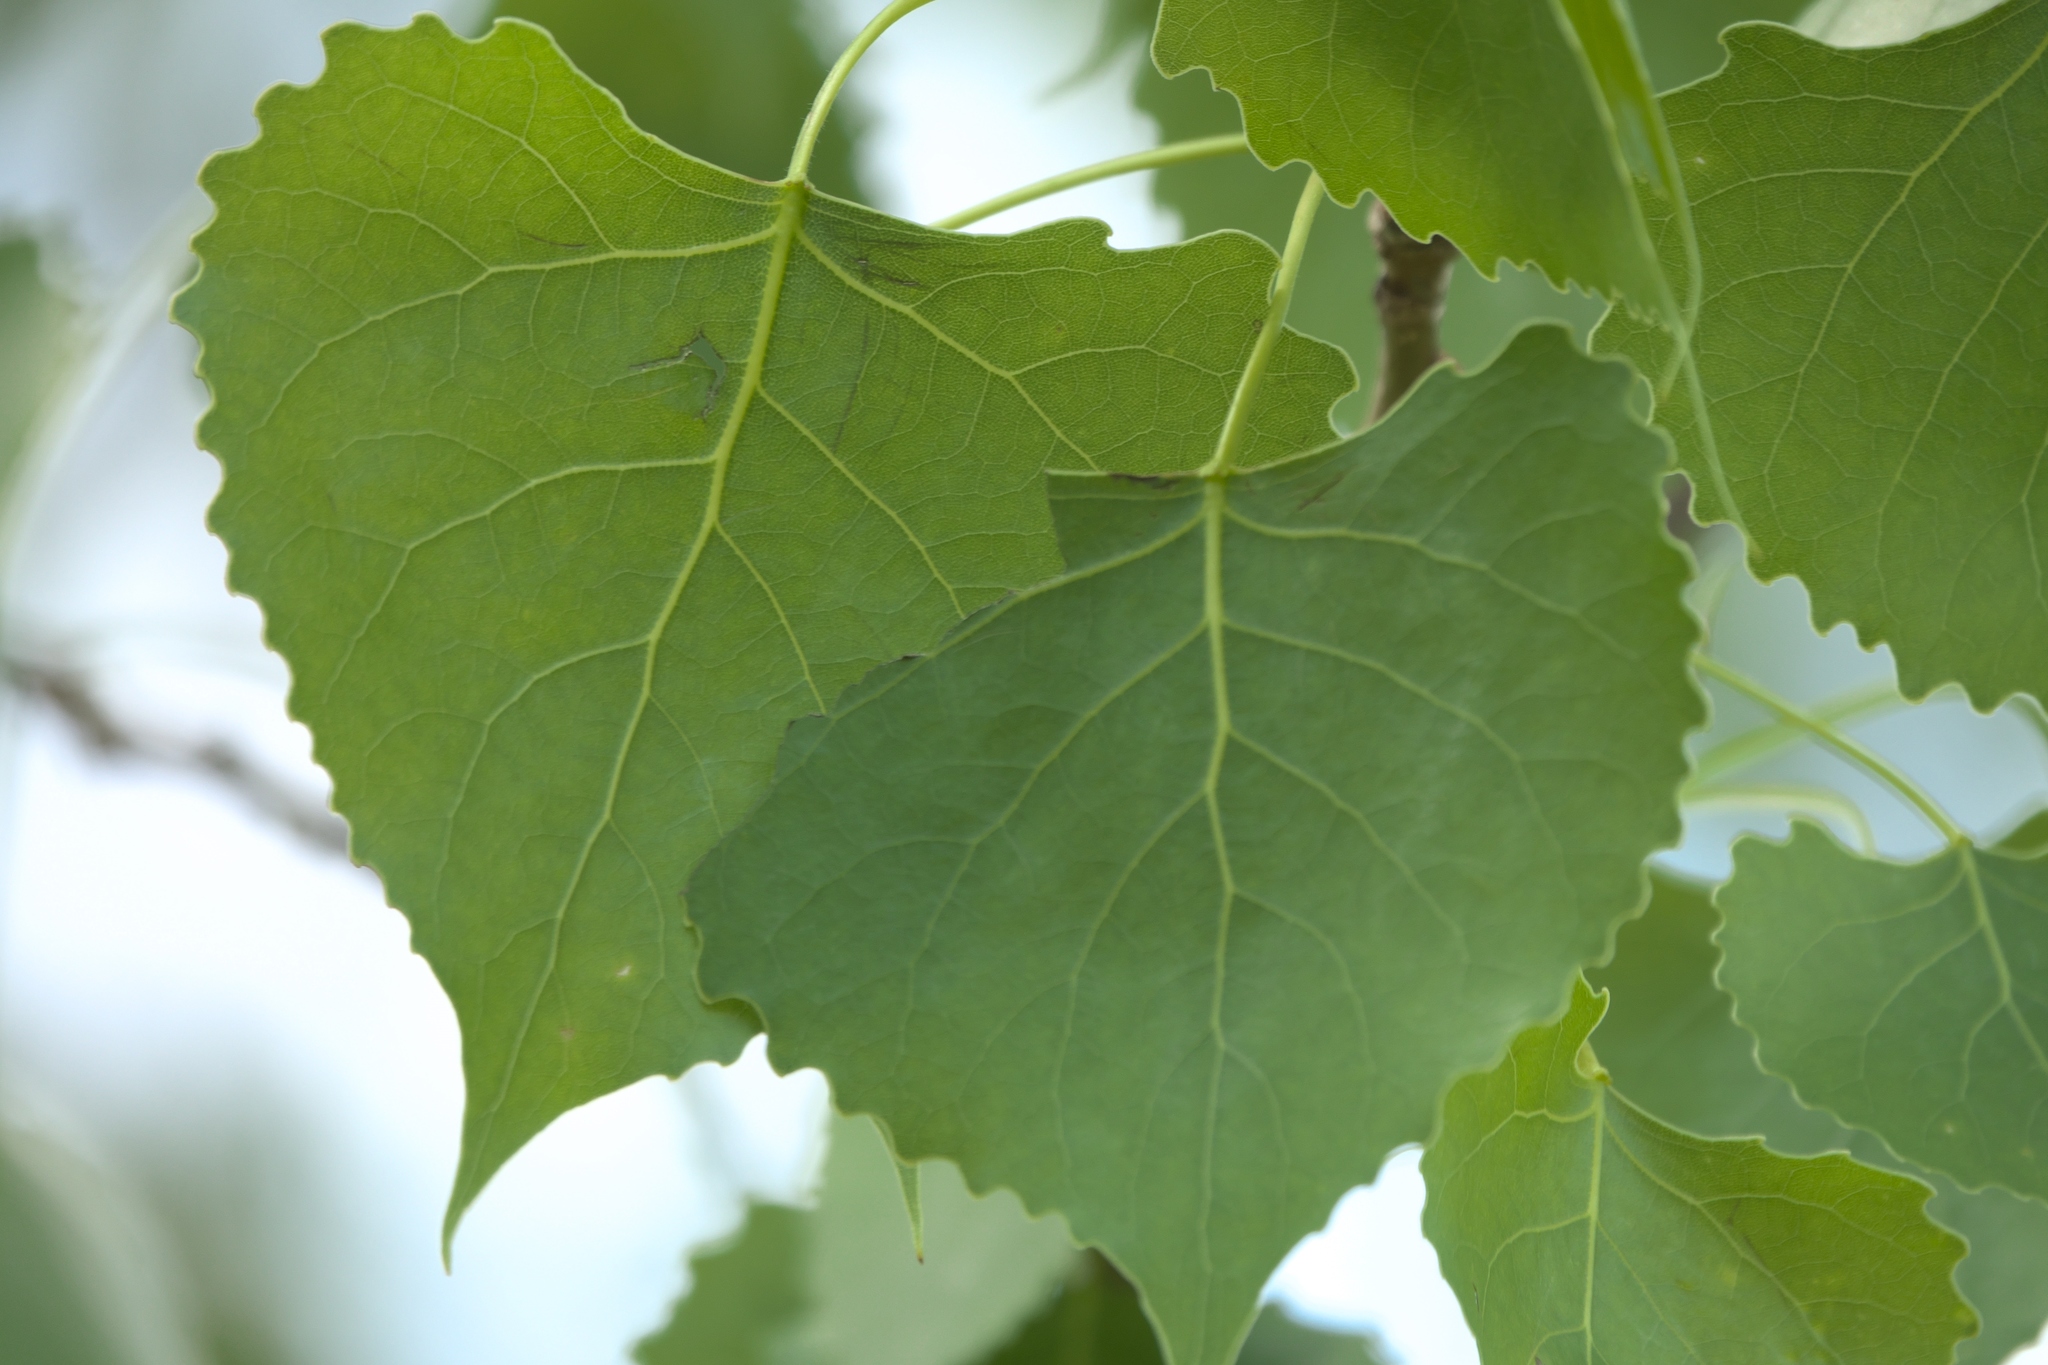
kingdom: Plantae
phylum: Tracheophyta
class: Magnoliopsida
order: Malpighiales
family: Salicaceae
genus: Populus
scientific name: Populus deltoides
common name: Eastern cottonwood
